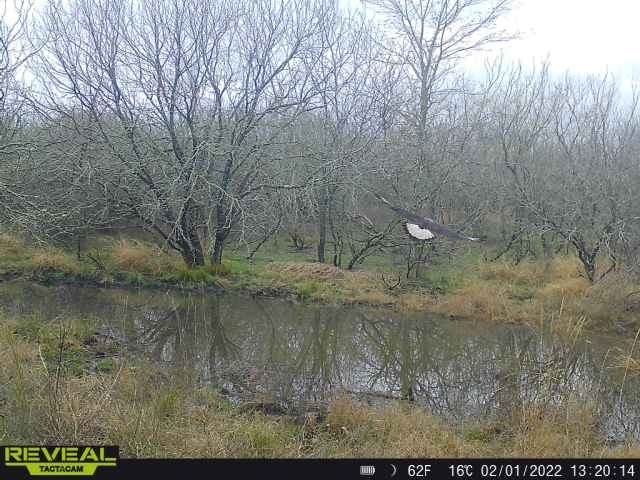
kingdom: Animalia
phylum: Chordata
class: Aves
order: Falconiformes
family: Falconidae
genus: Caracara
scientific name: Caracara plancus
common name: Southern caracara
